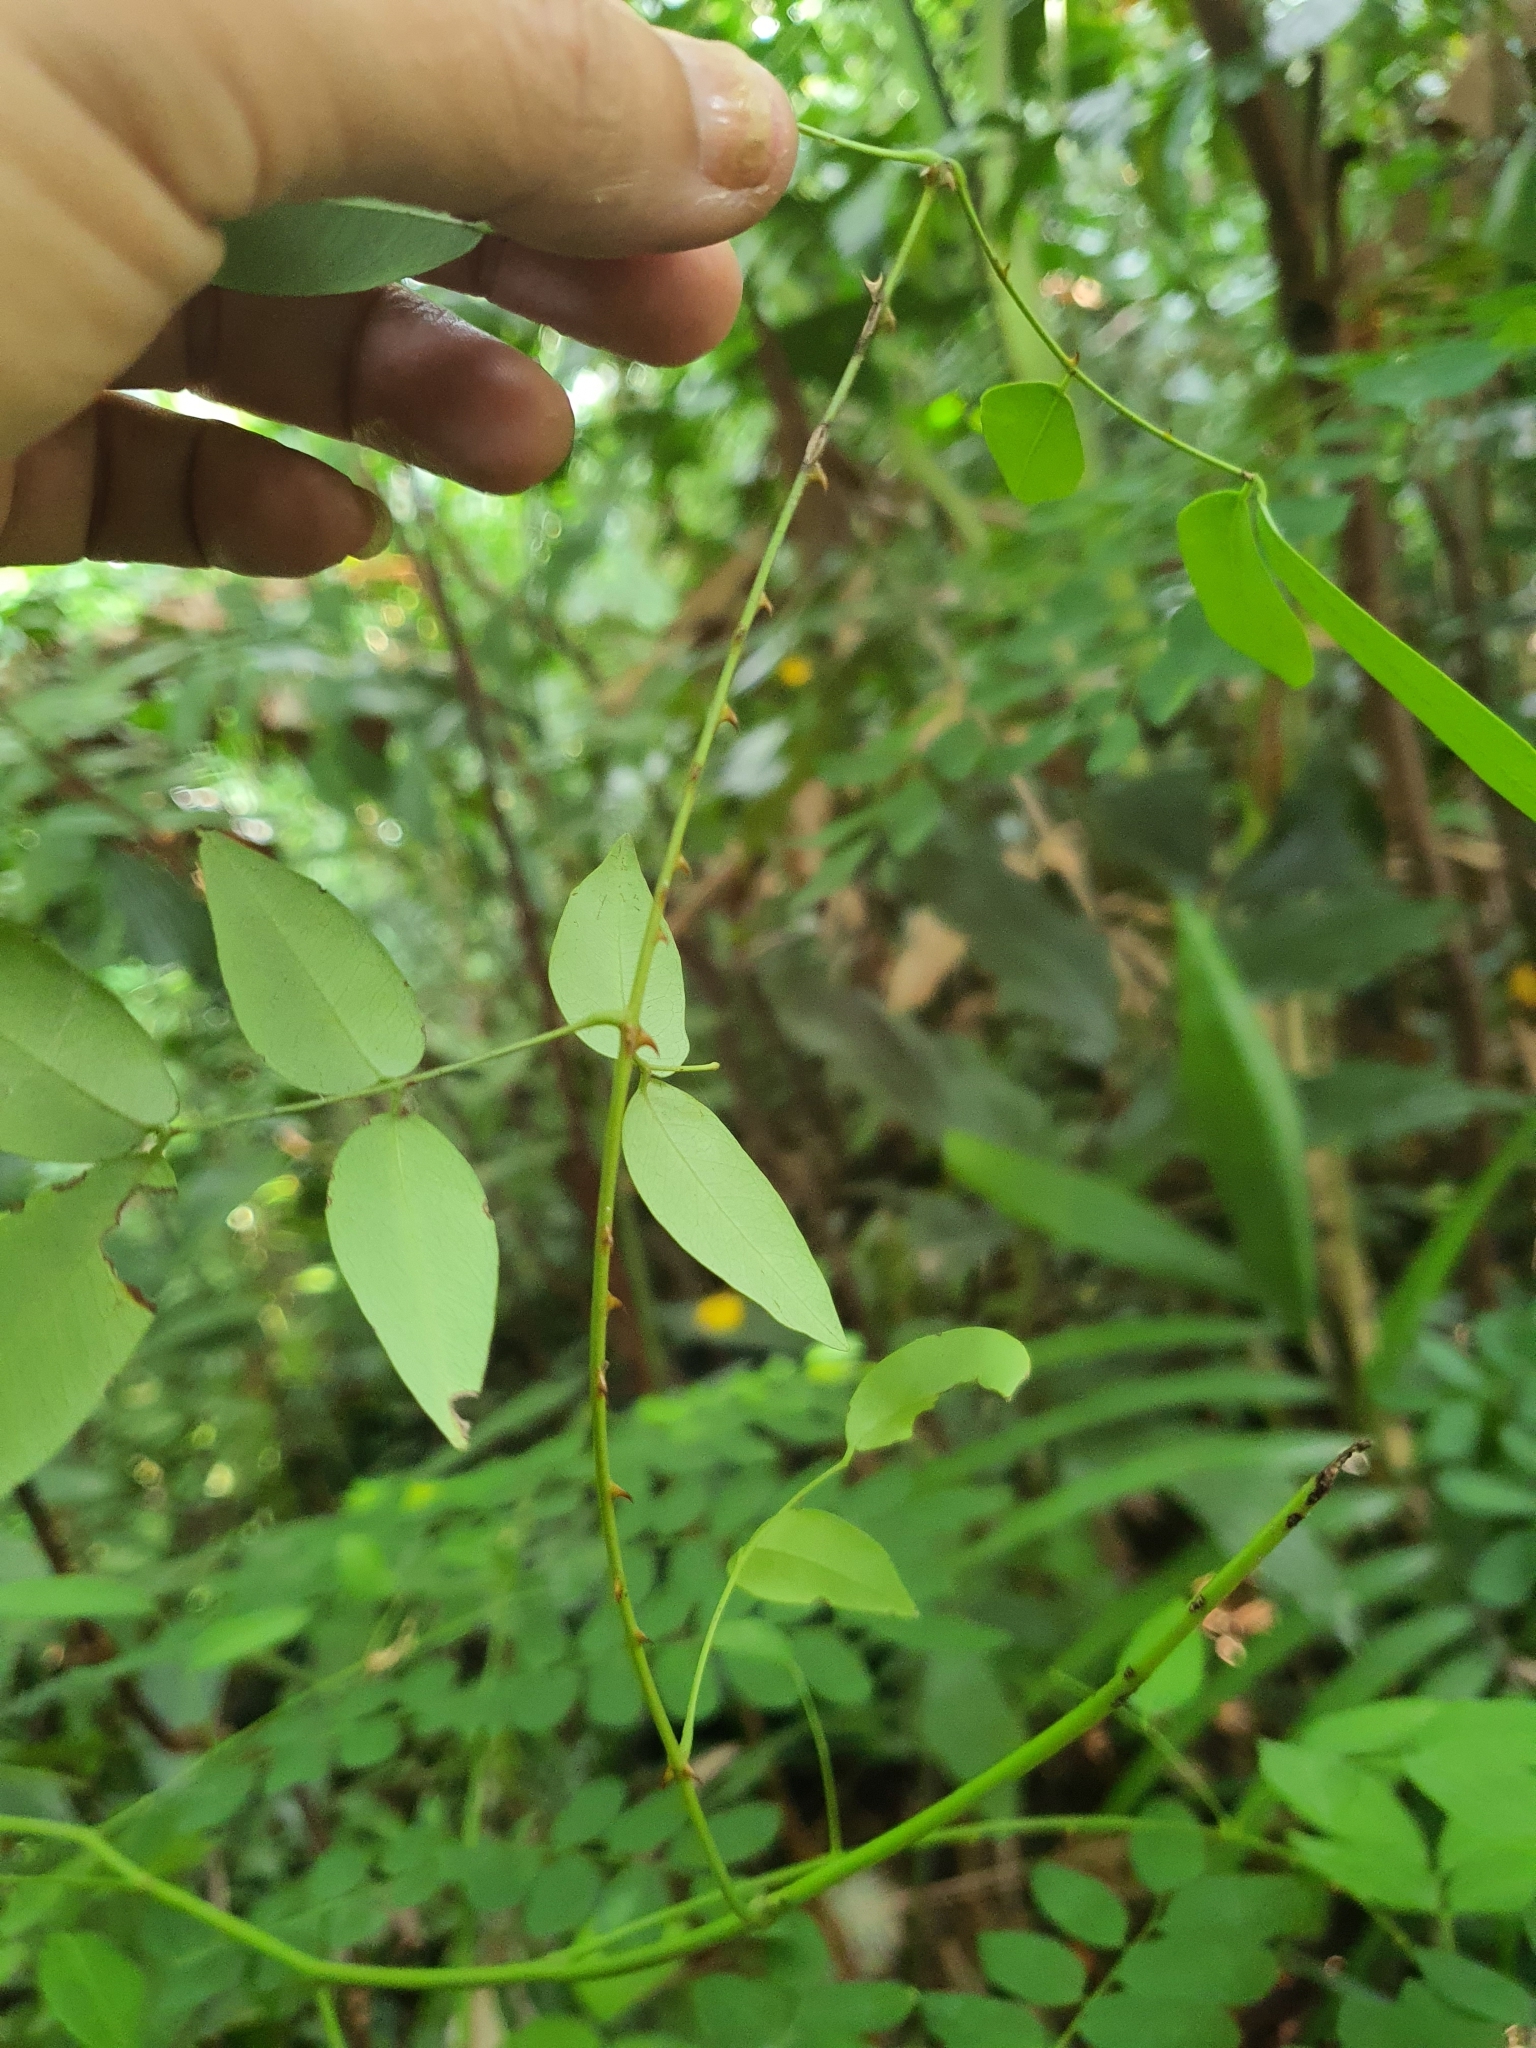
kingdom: Plantae
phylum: Tracheophyta
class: Magnoliopsida
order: Fabales
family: Fabaceae
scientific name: Fabaceae
